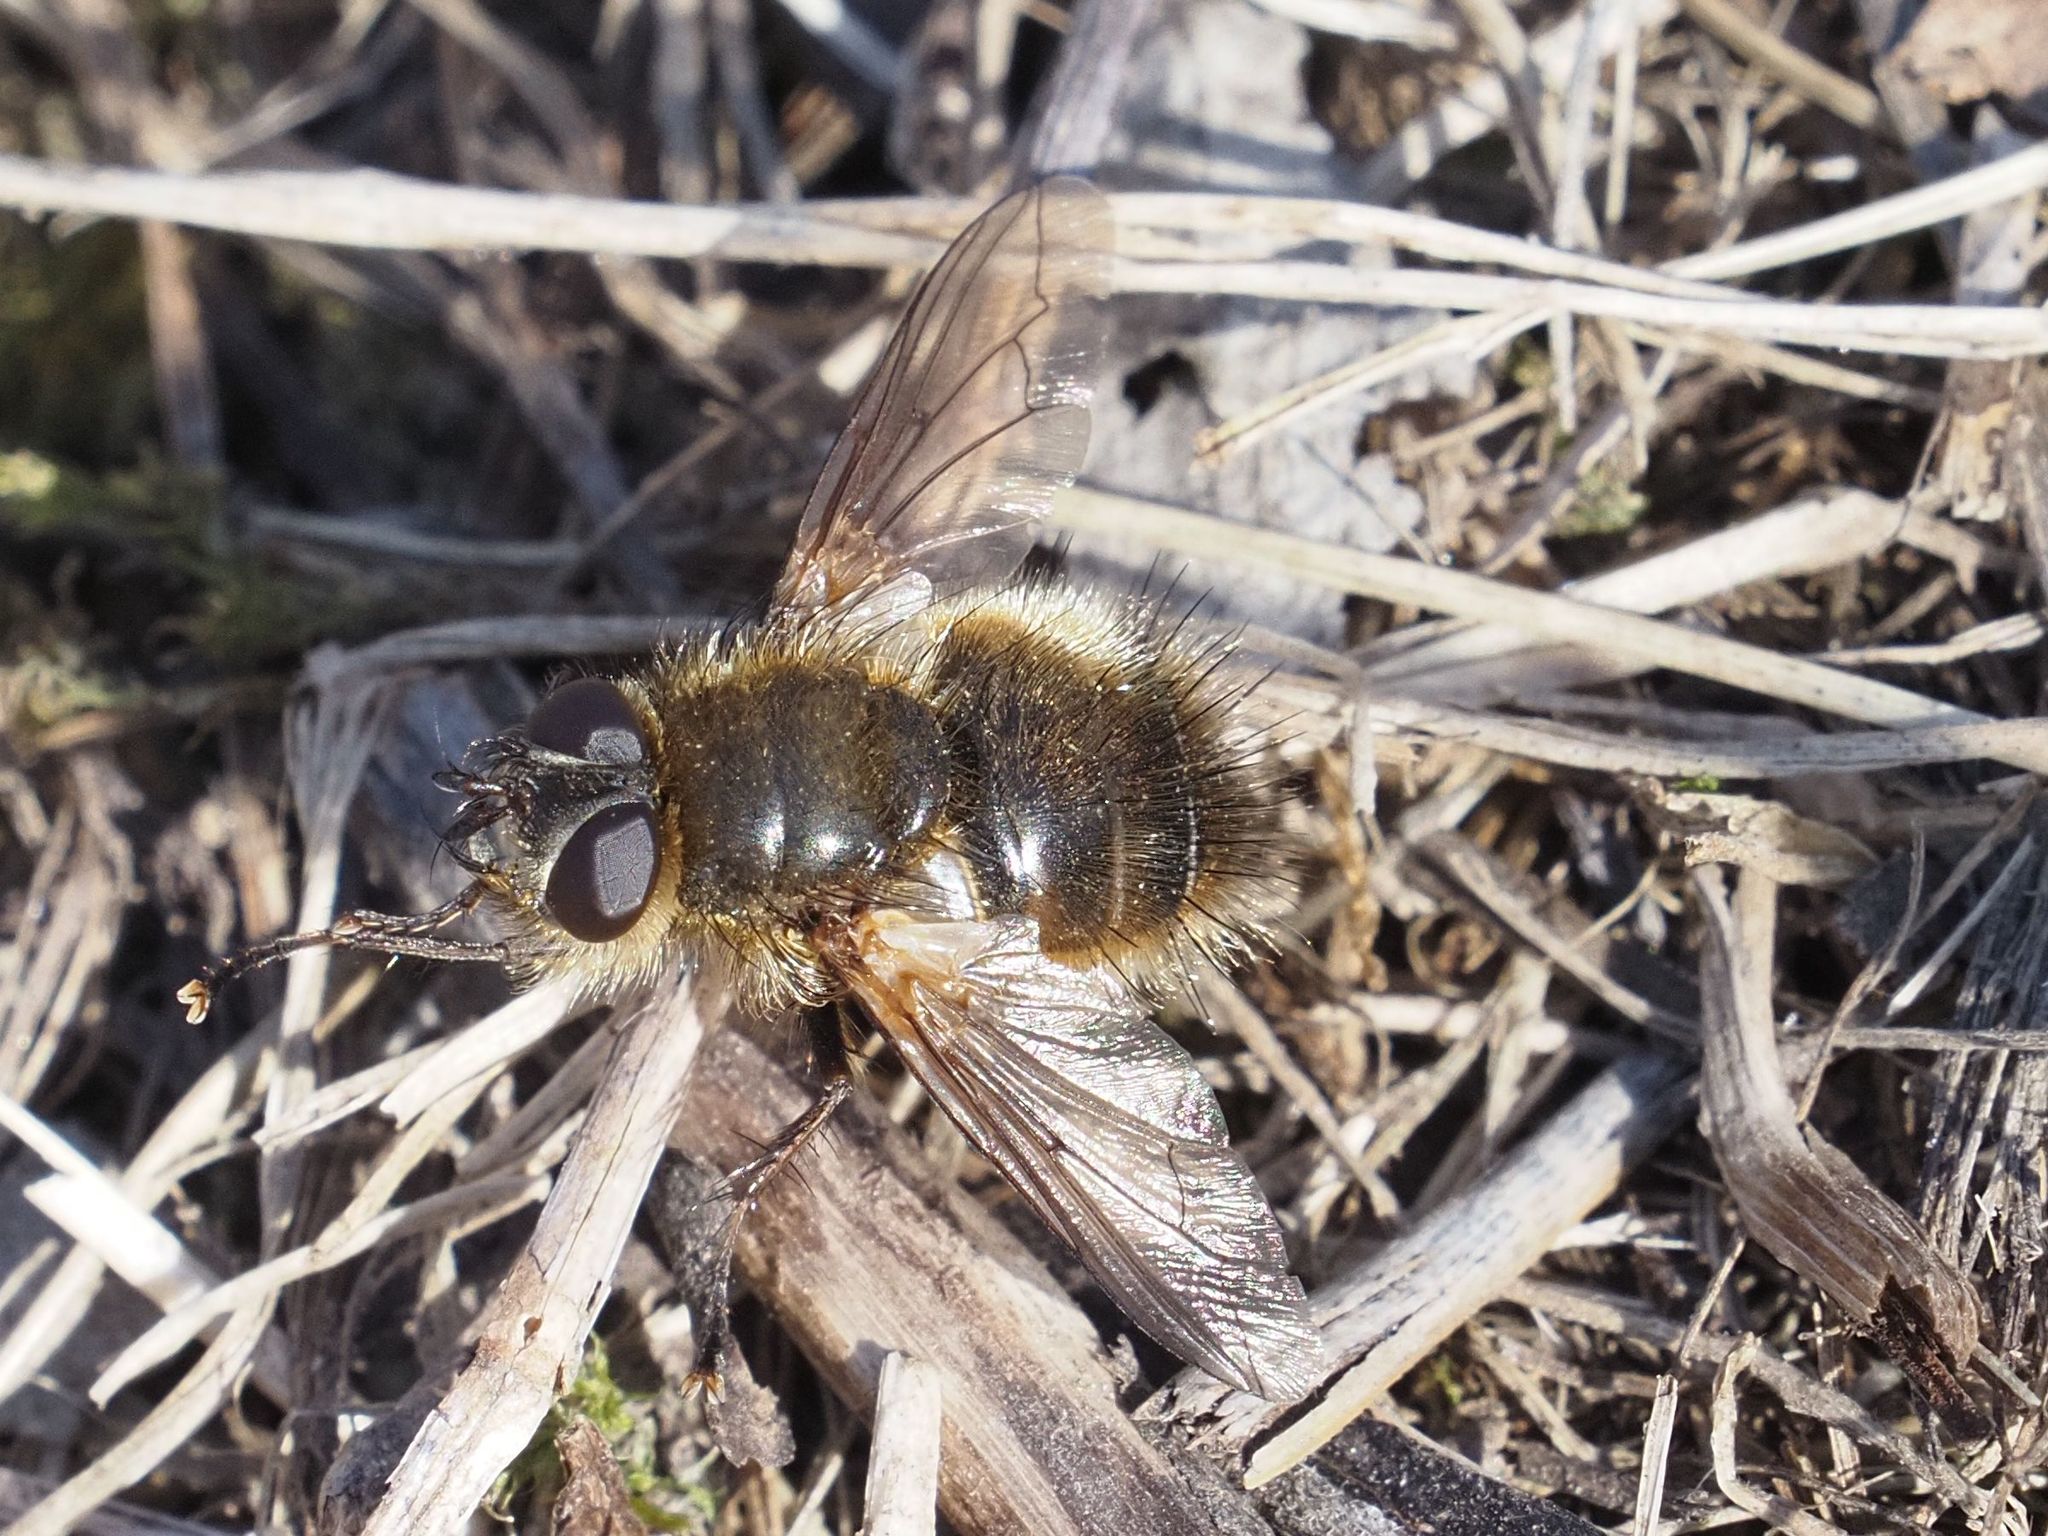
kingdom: Animalia
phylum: Arthropoda
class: Insecta
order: Diptera
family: Tachinidae
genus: Tachina
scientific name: Tachina ursina
